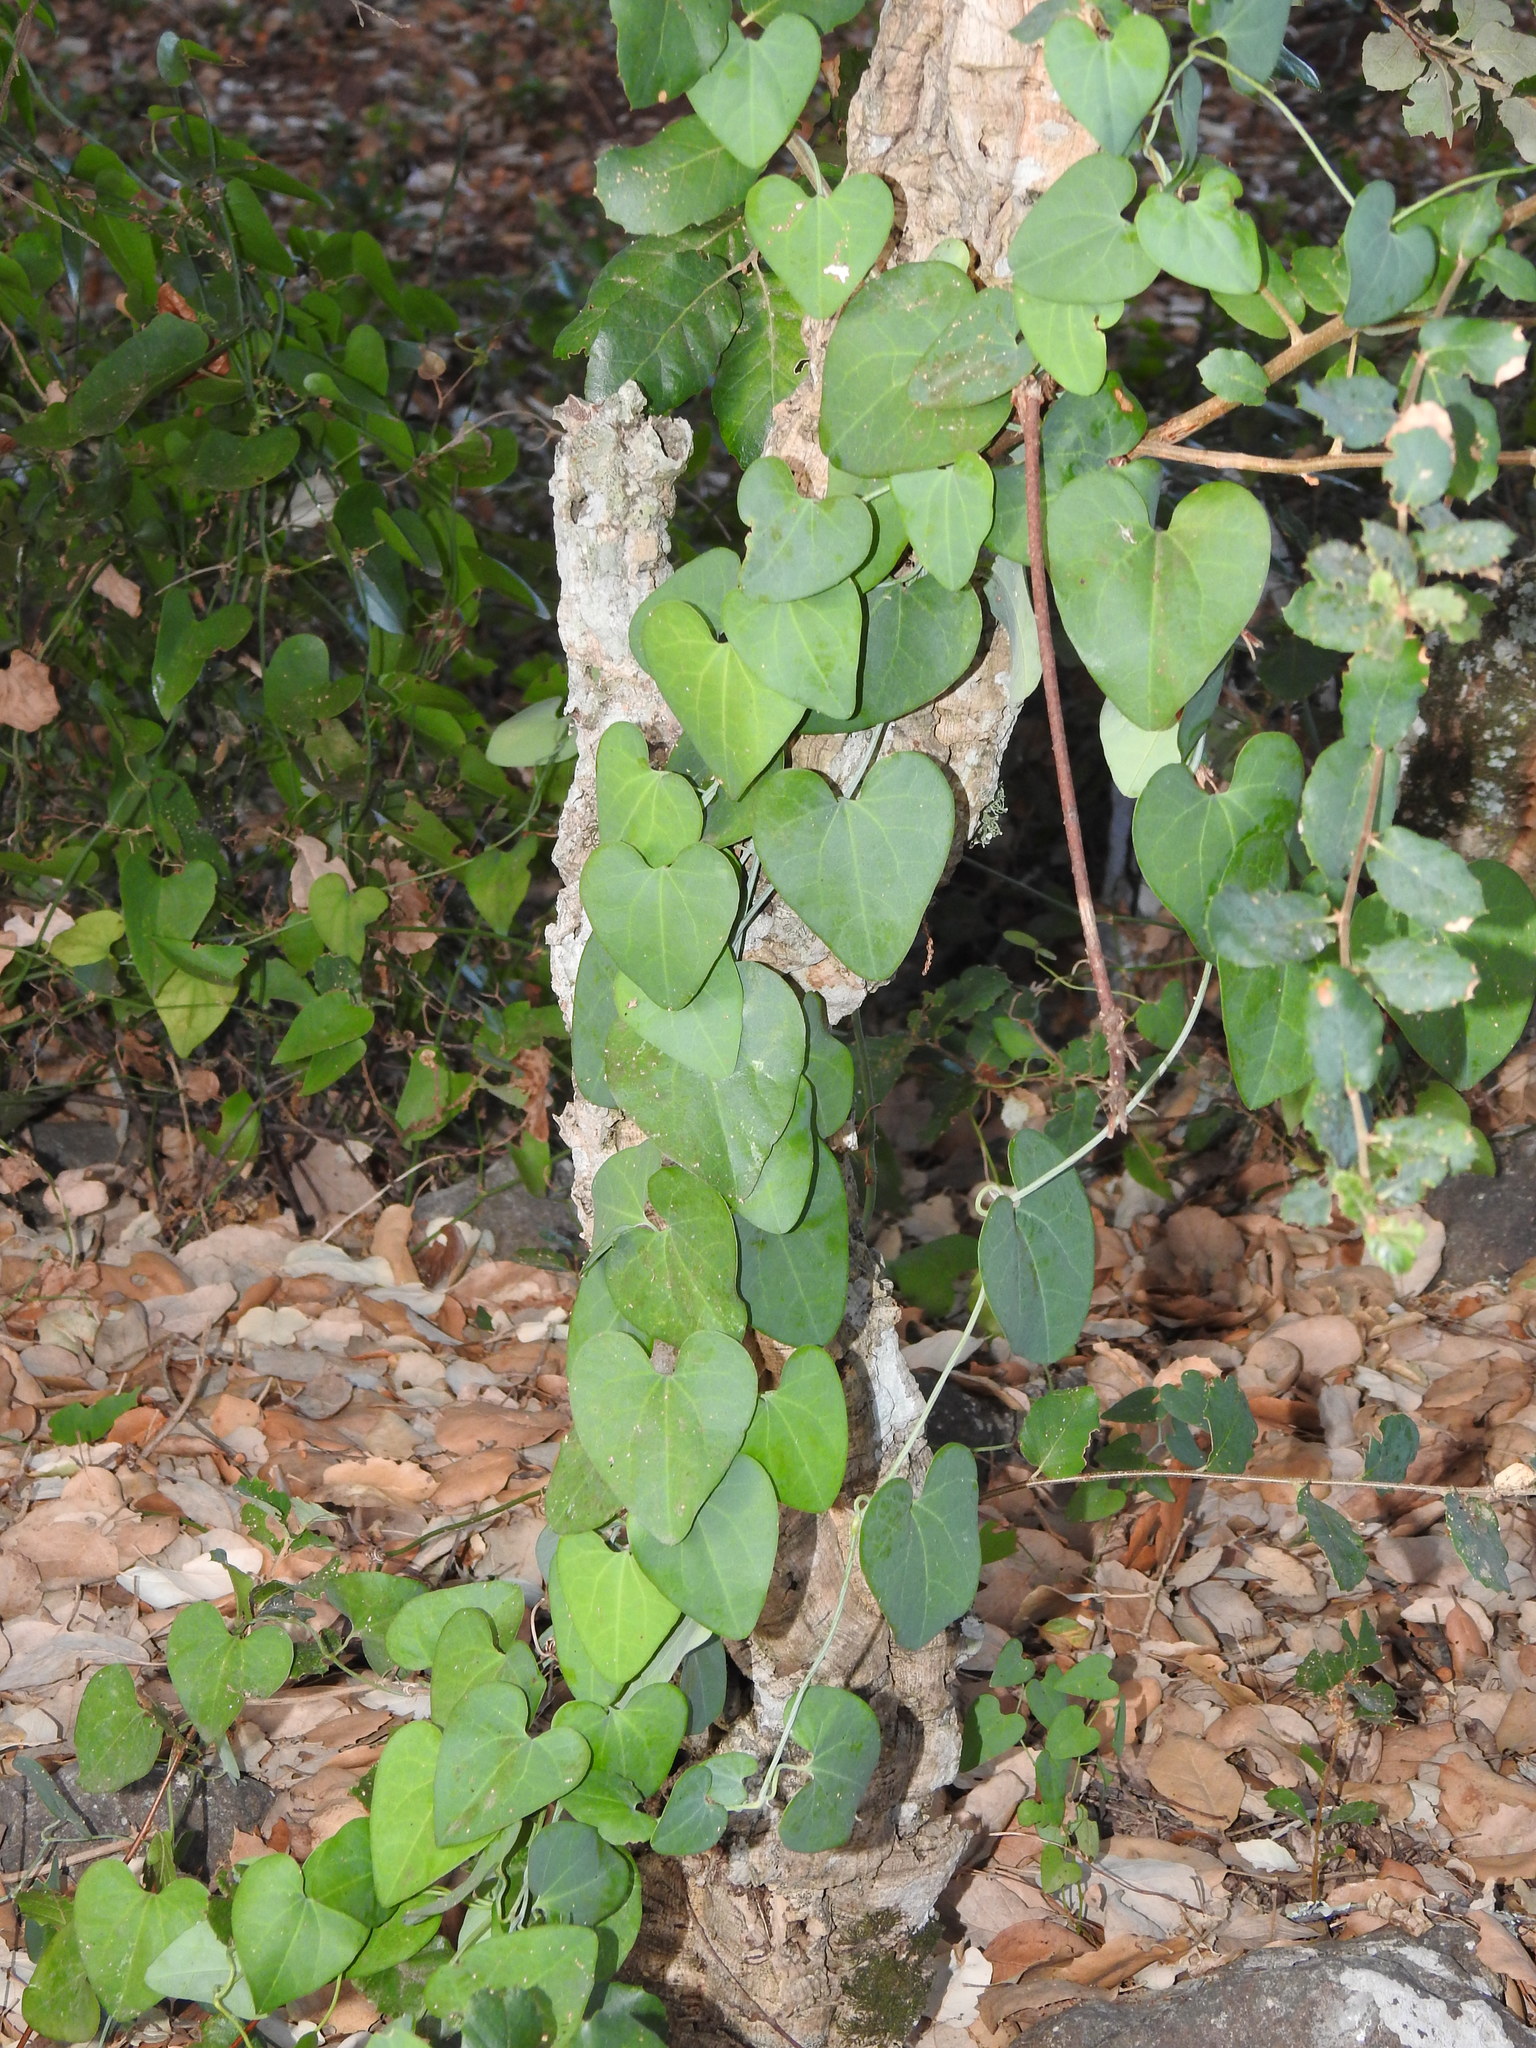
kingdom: Plantae
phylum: Tracheophyta
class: Magnoliopsida
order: Piperales
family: Aristolochiaceae
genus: Aristolochia
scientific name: Aristolochia baetica
